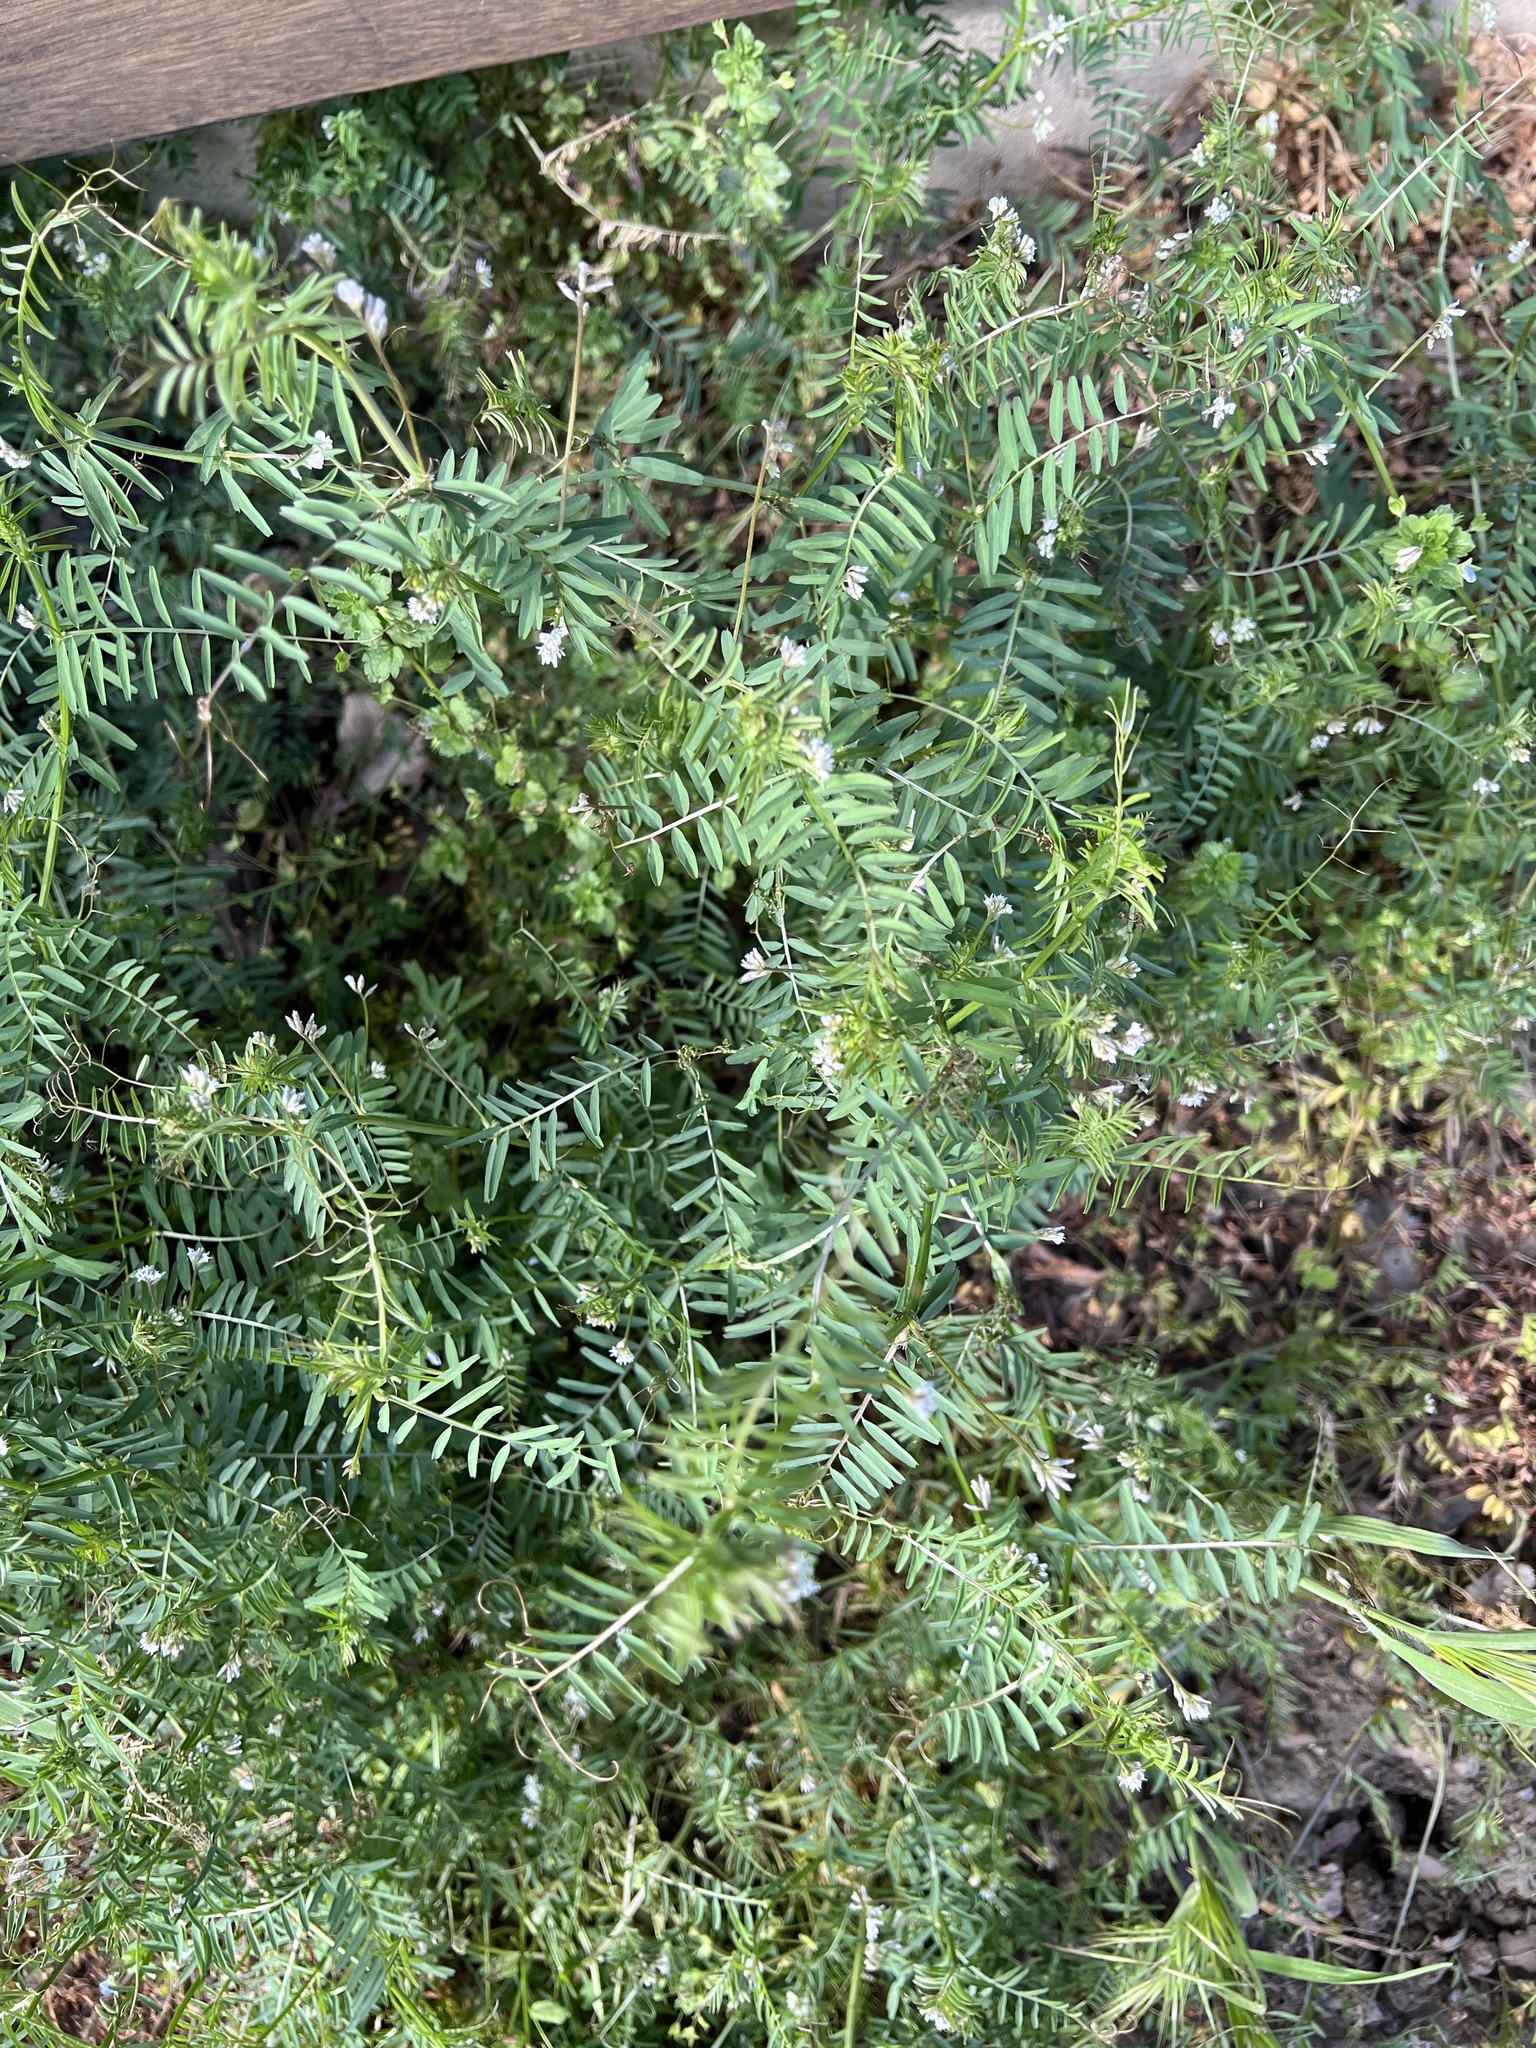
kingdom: Plantae
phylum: Tracheophyta
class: Magnoliopsida
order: Fabales
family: Fabaceae
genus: Vicia
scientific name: Vicia hirsuta
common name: Tiny vetch
